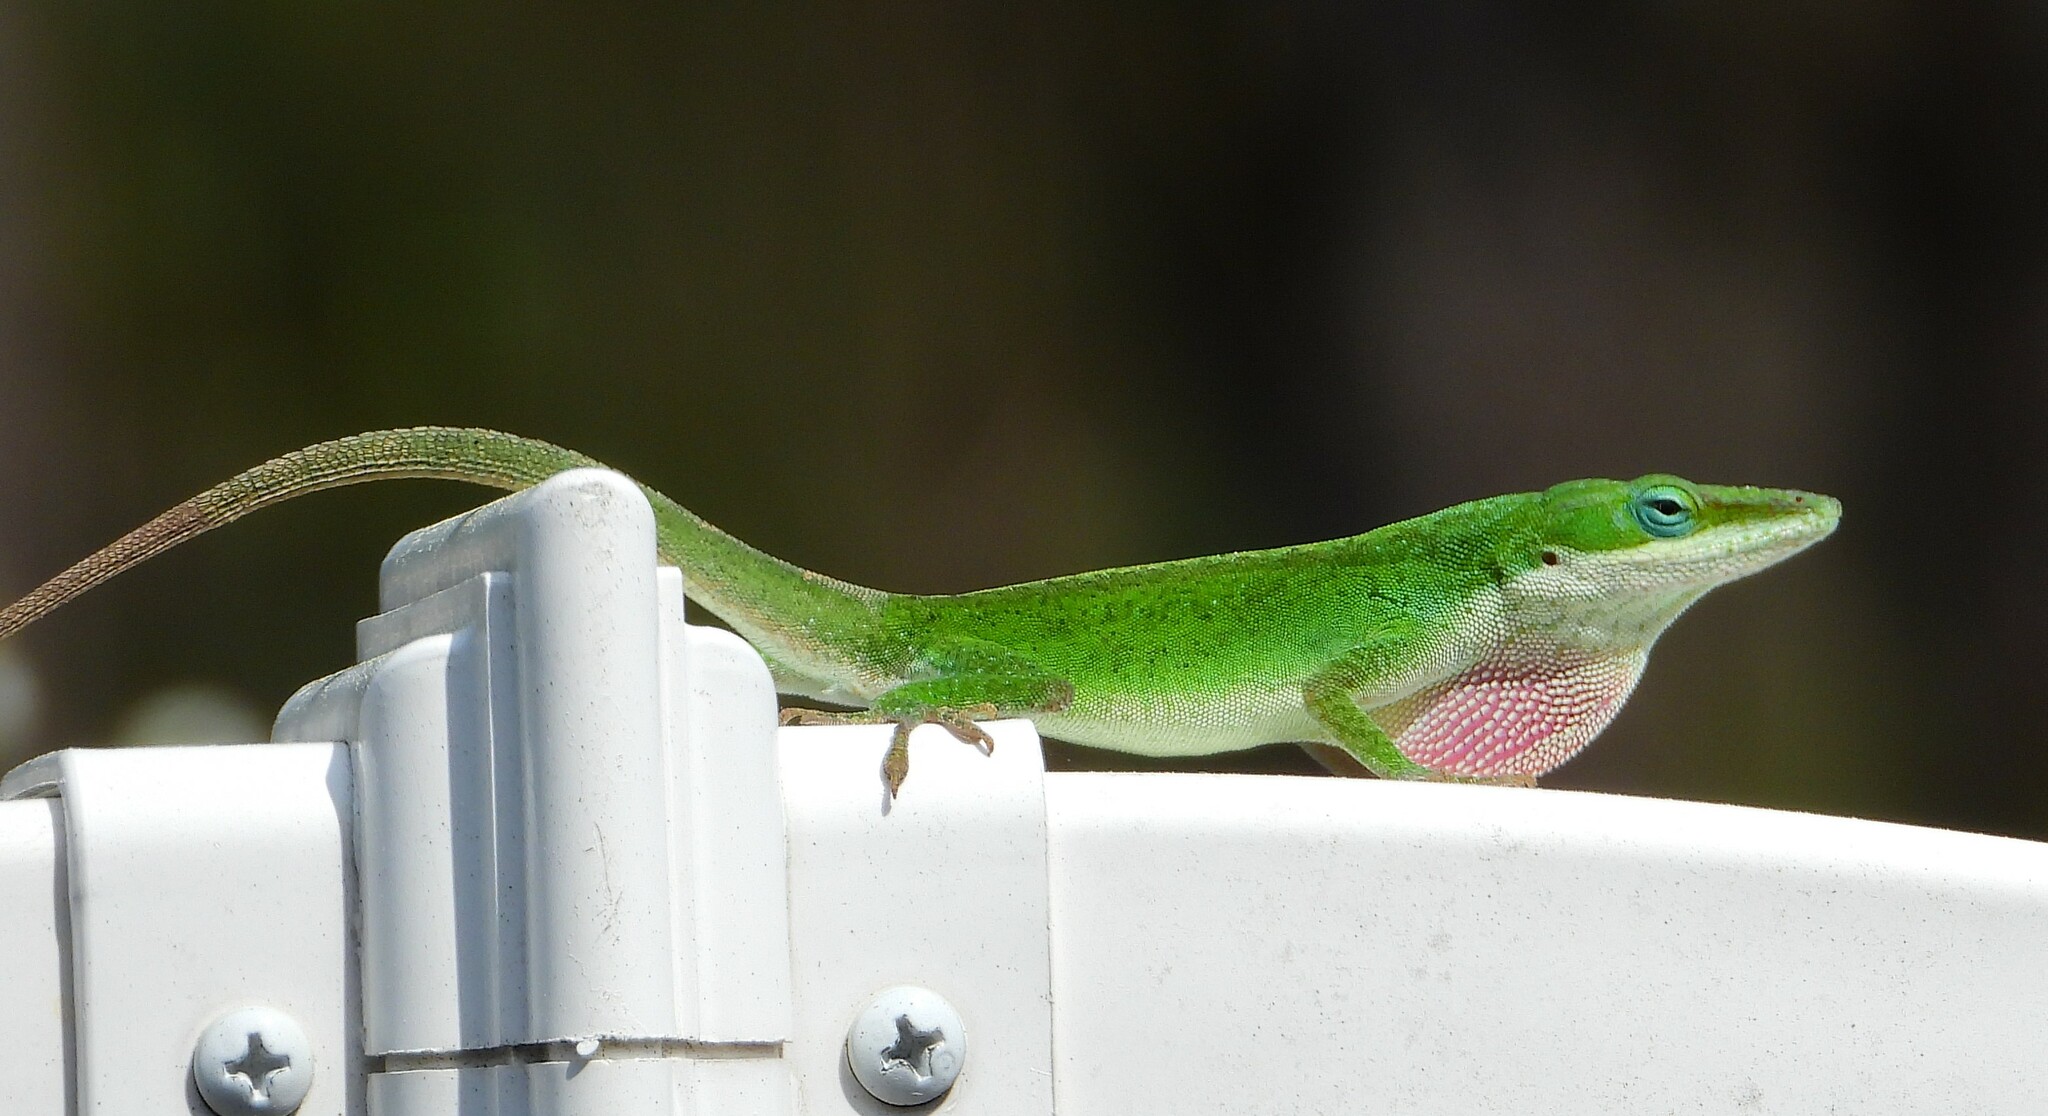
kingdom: Animalia
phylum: Chordata
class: Squamata
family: Dactyloidae
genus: Anolis
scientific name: Anolis carolinensis
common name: Green anole
